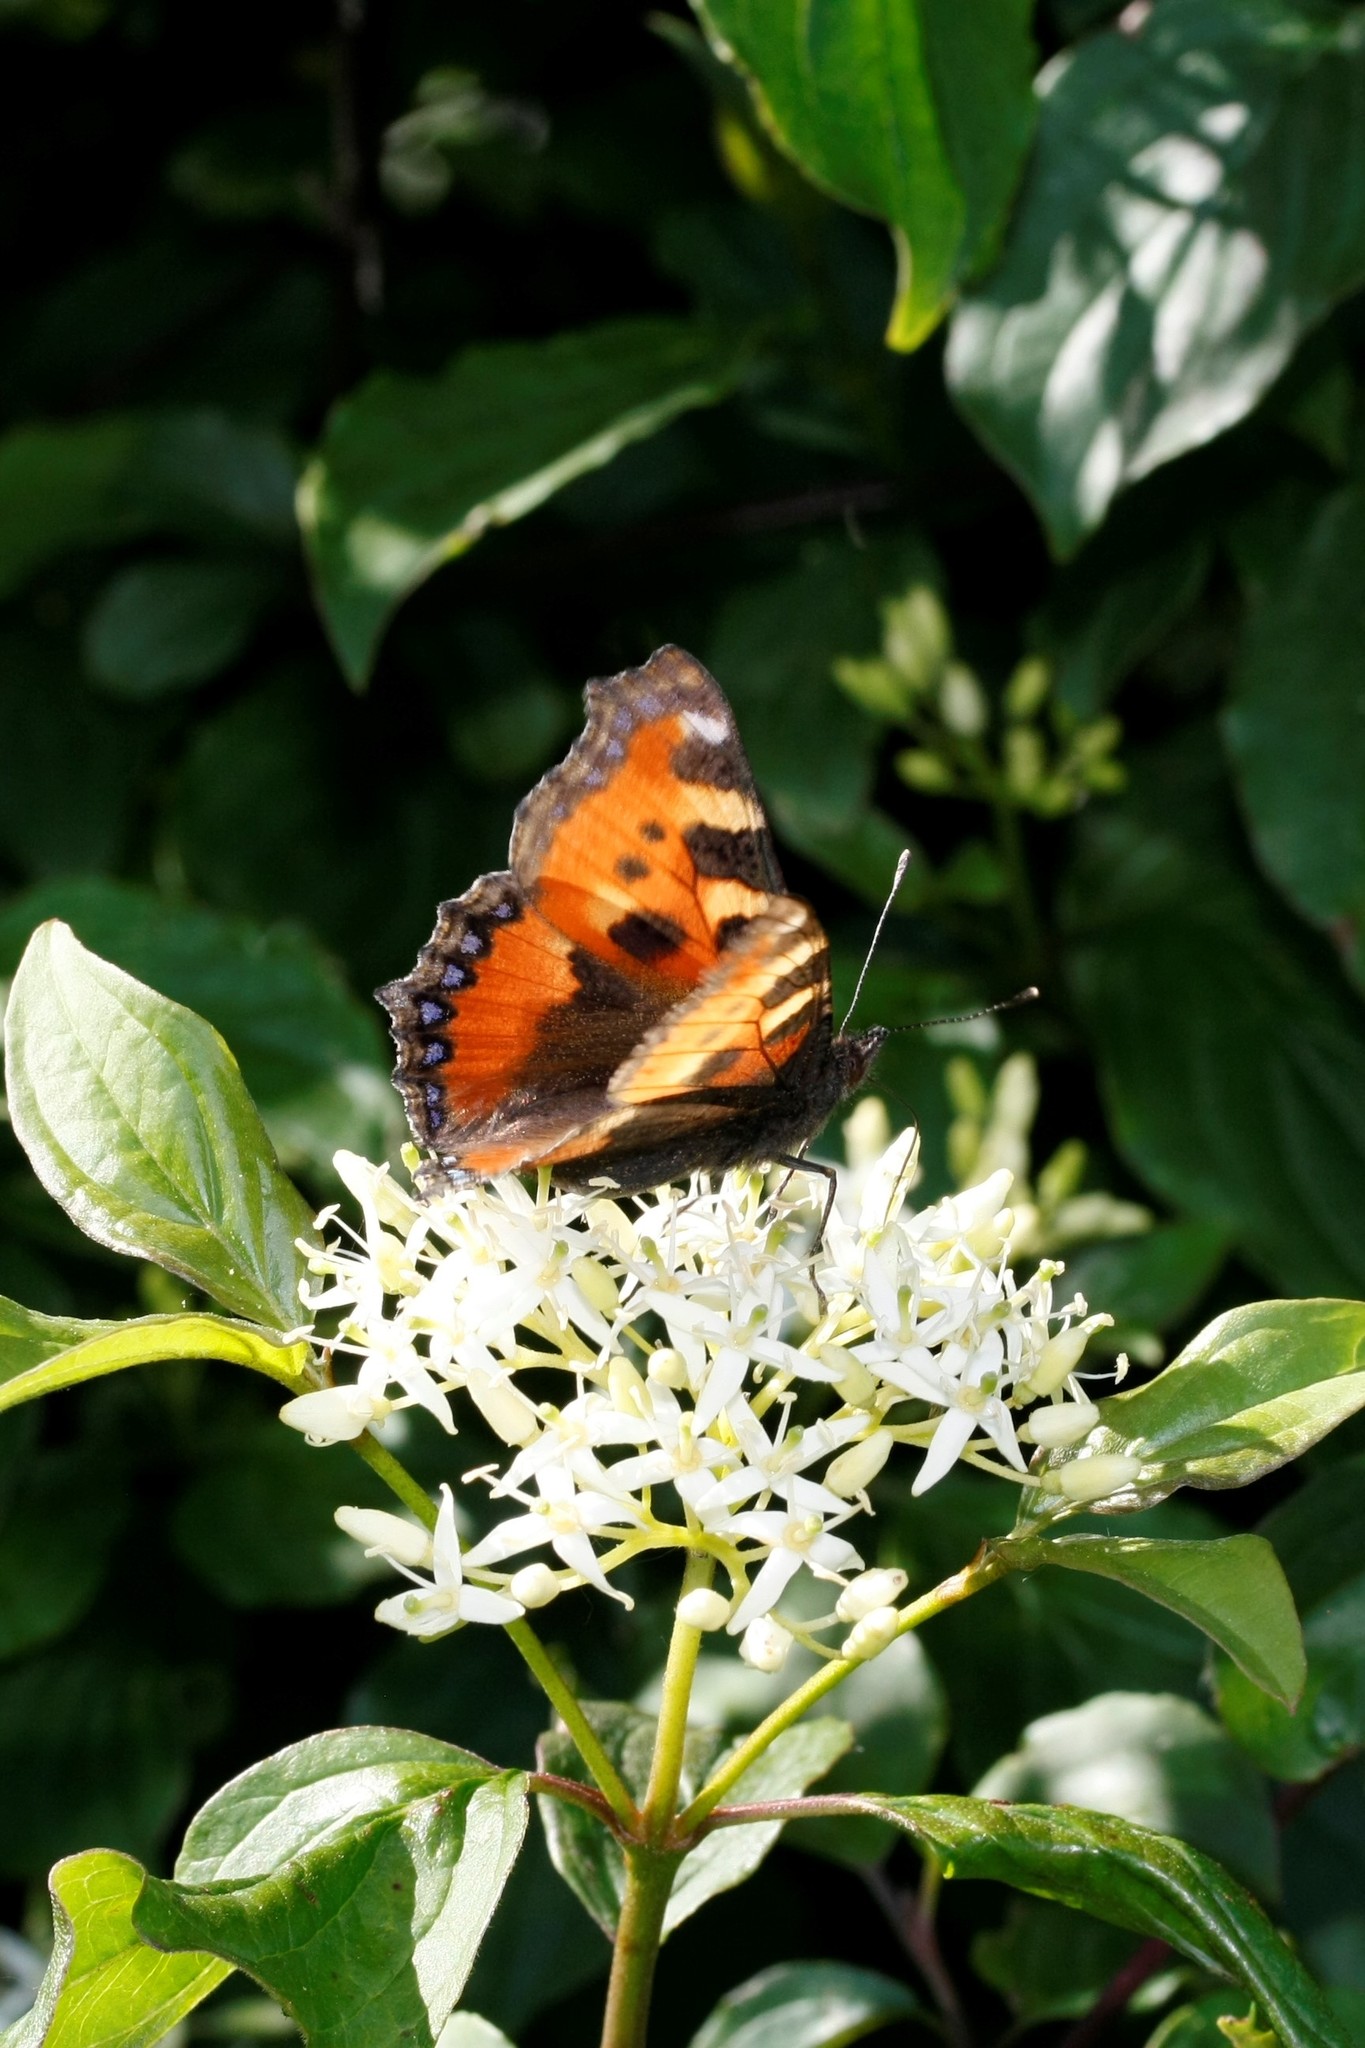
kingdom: Animalia
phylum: Arthropoda
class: Insecta
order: Lepidoptera
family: Nymphalidae
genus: Aglais
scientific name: Aglais urticae
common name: Small tortoiseshell
